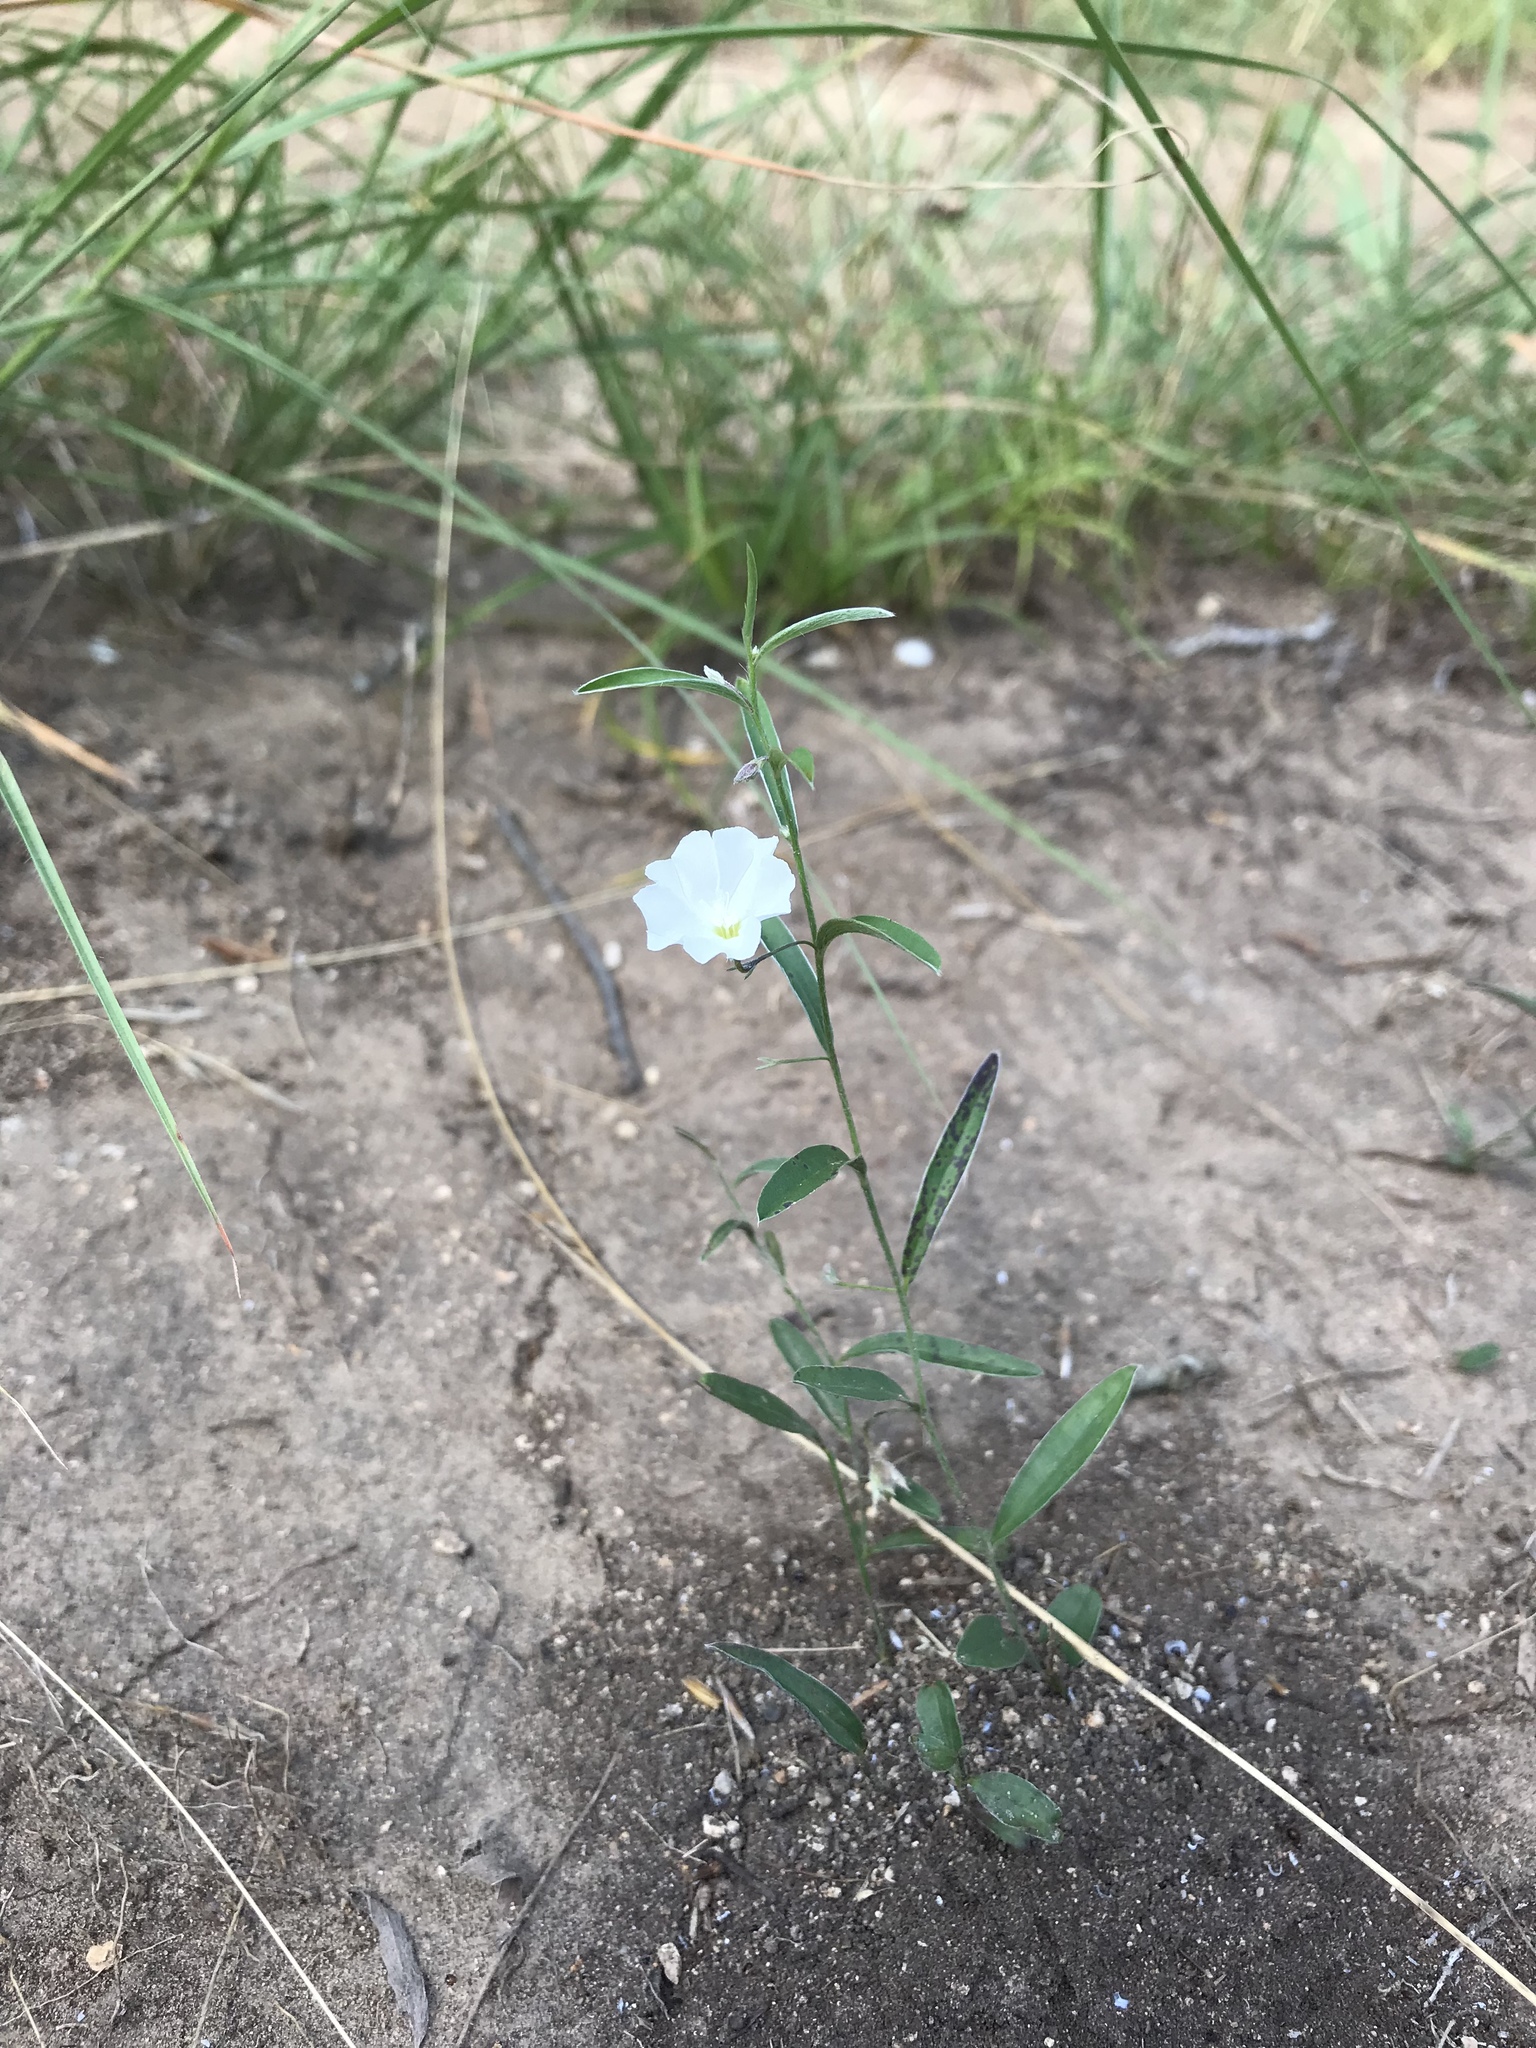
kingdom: Plantae
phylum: Tracheophyta
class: Magnoliopsida
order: Solanales
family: Convolvulaceae
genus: Evolvulus
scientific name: Evolvulus sericeus
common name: Blue dots
